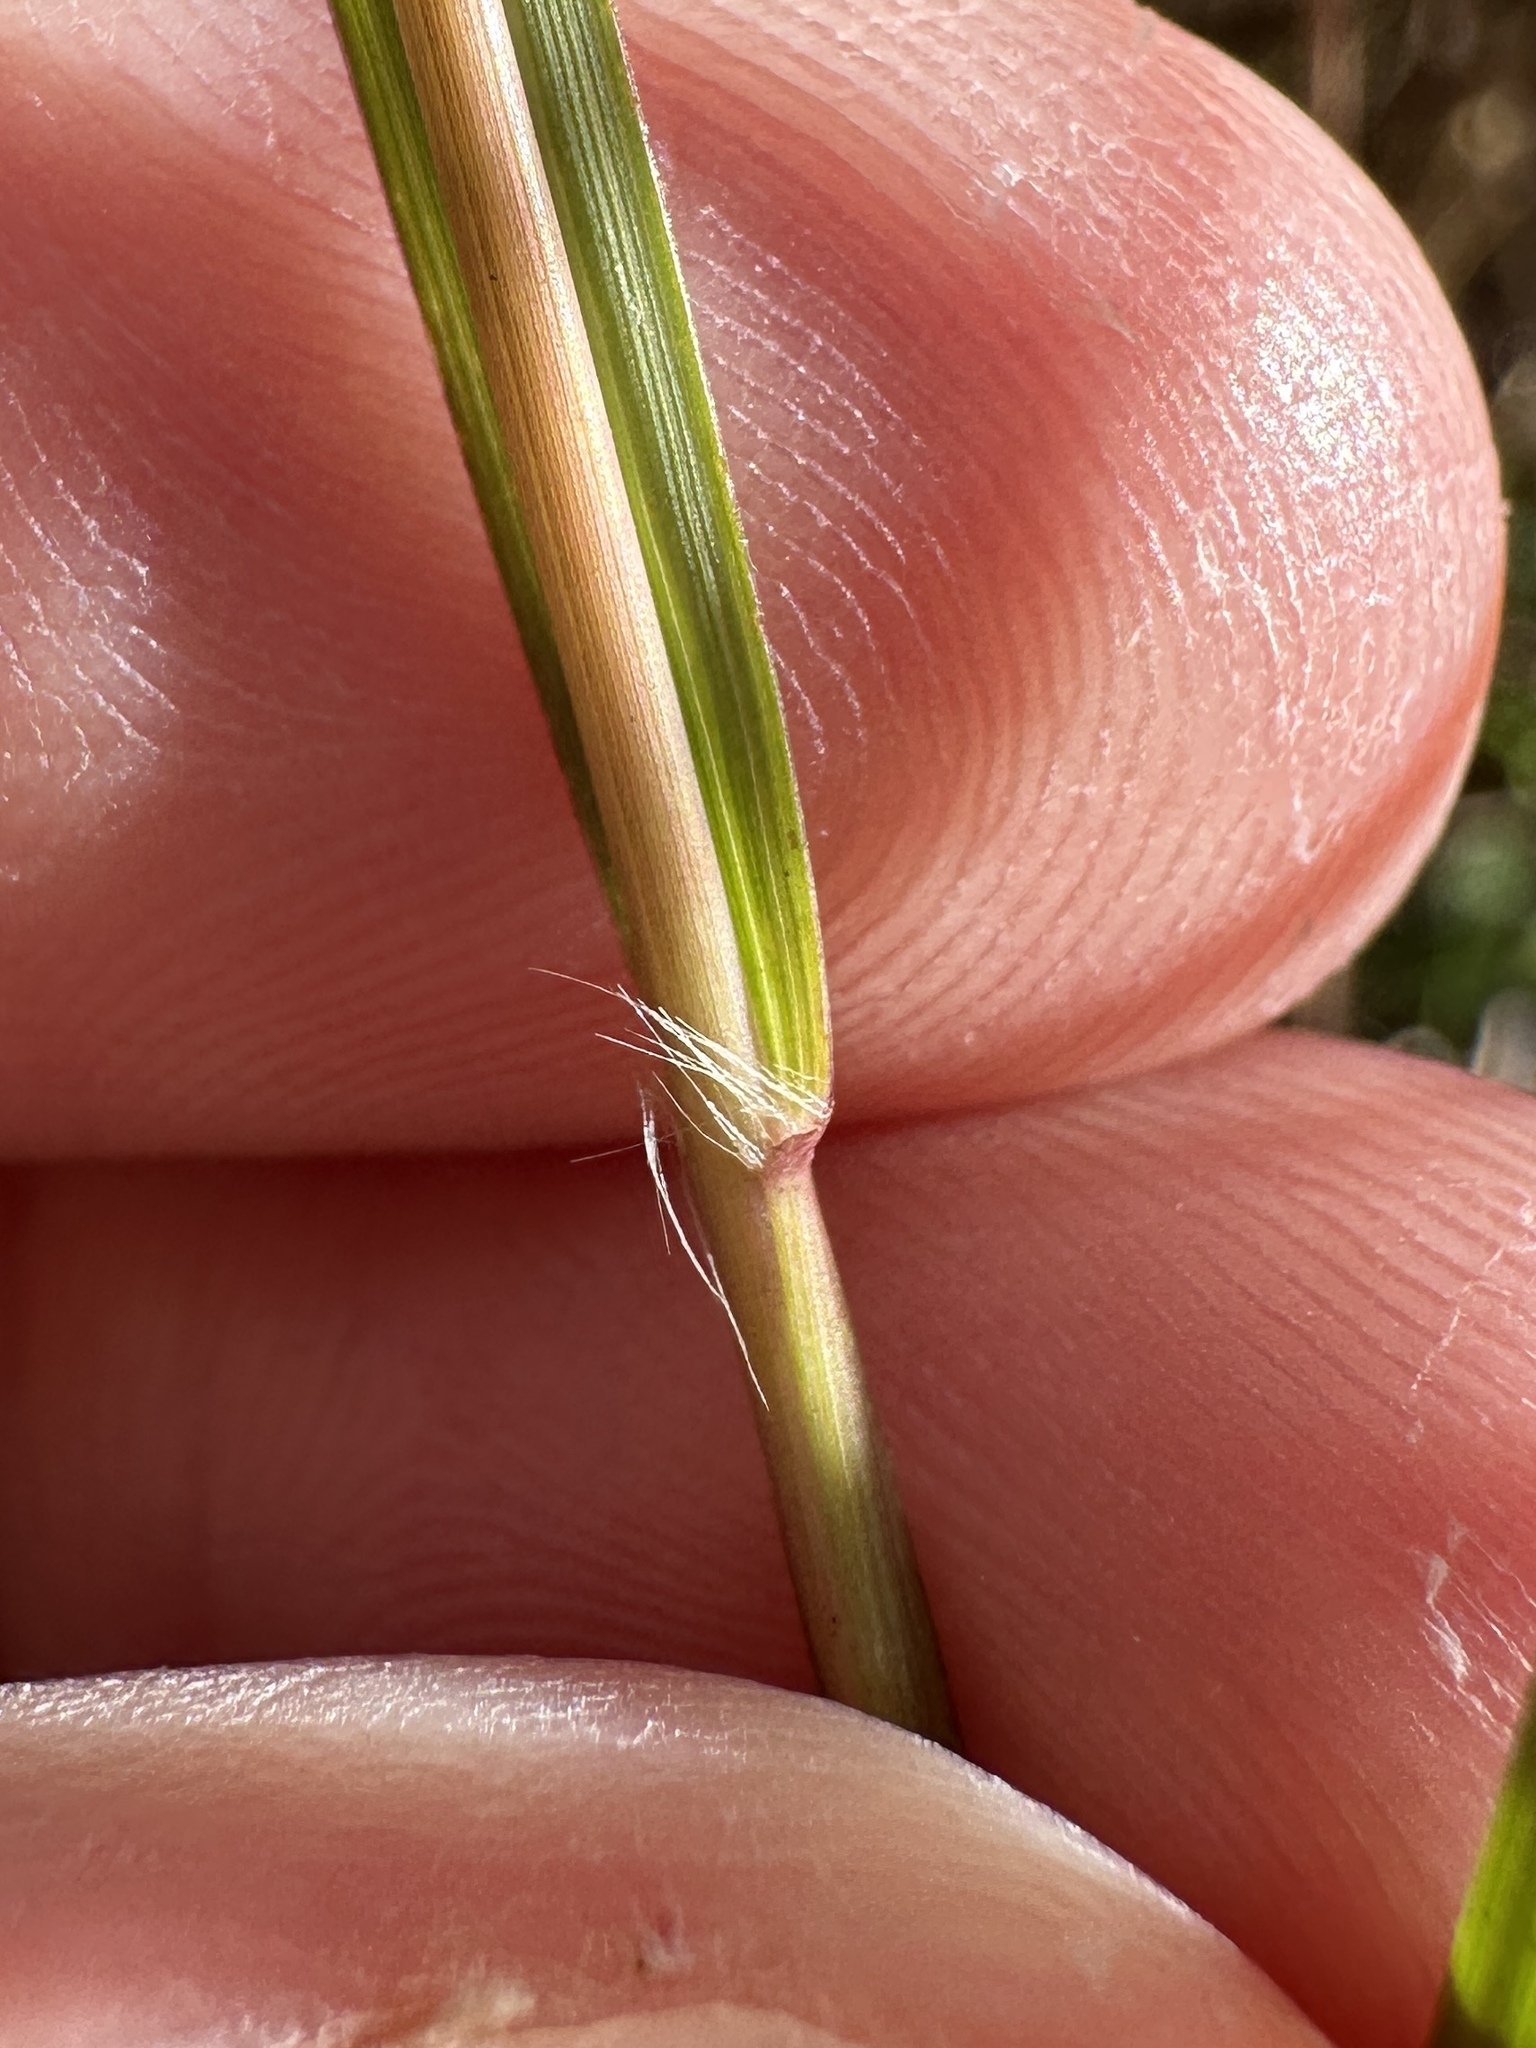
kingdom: Plantae
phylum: Tracheophyta
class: Liliopsida
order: Poales
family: Poaceae
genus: Eragrostis
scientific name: Eragrostis elliottii
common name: Elliott's love grass
